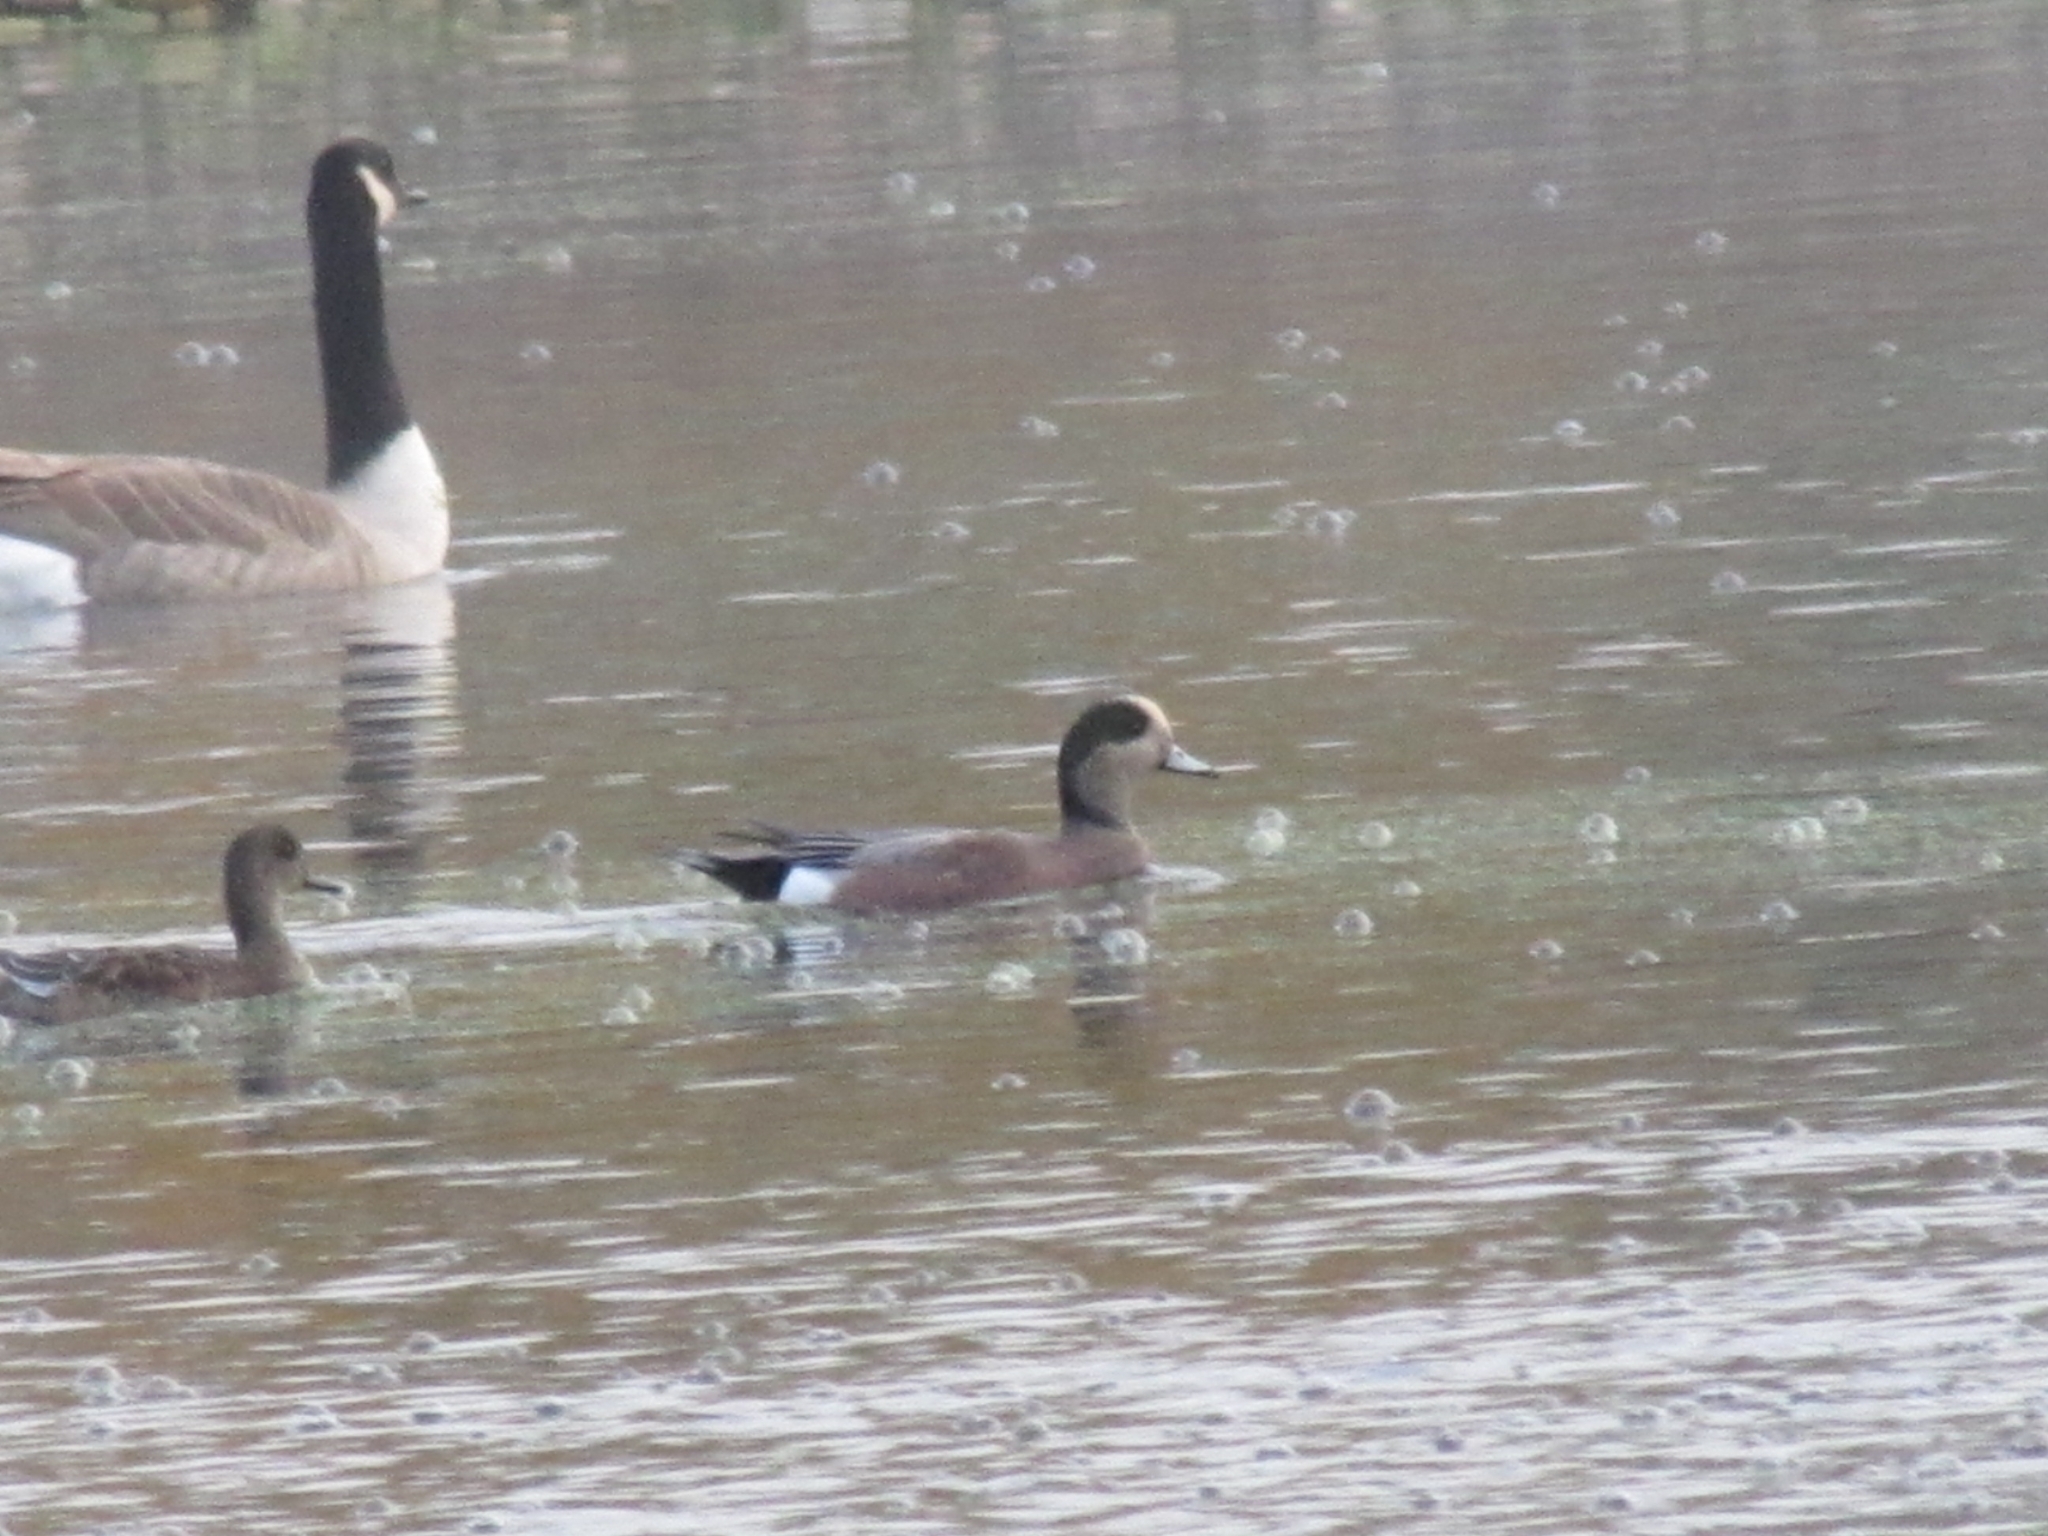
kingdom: Animalia
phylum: Chordata
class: Aves
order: Anseriformes
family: Anatidae
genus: Mareca
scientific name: Mareca americana
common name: American wigeon
